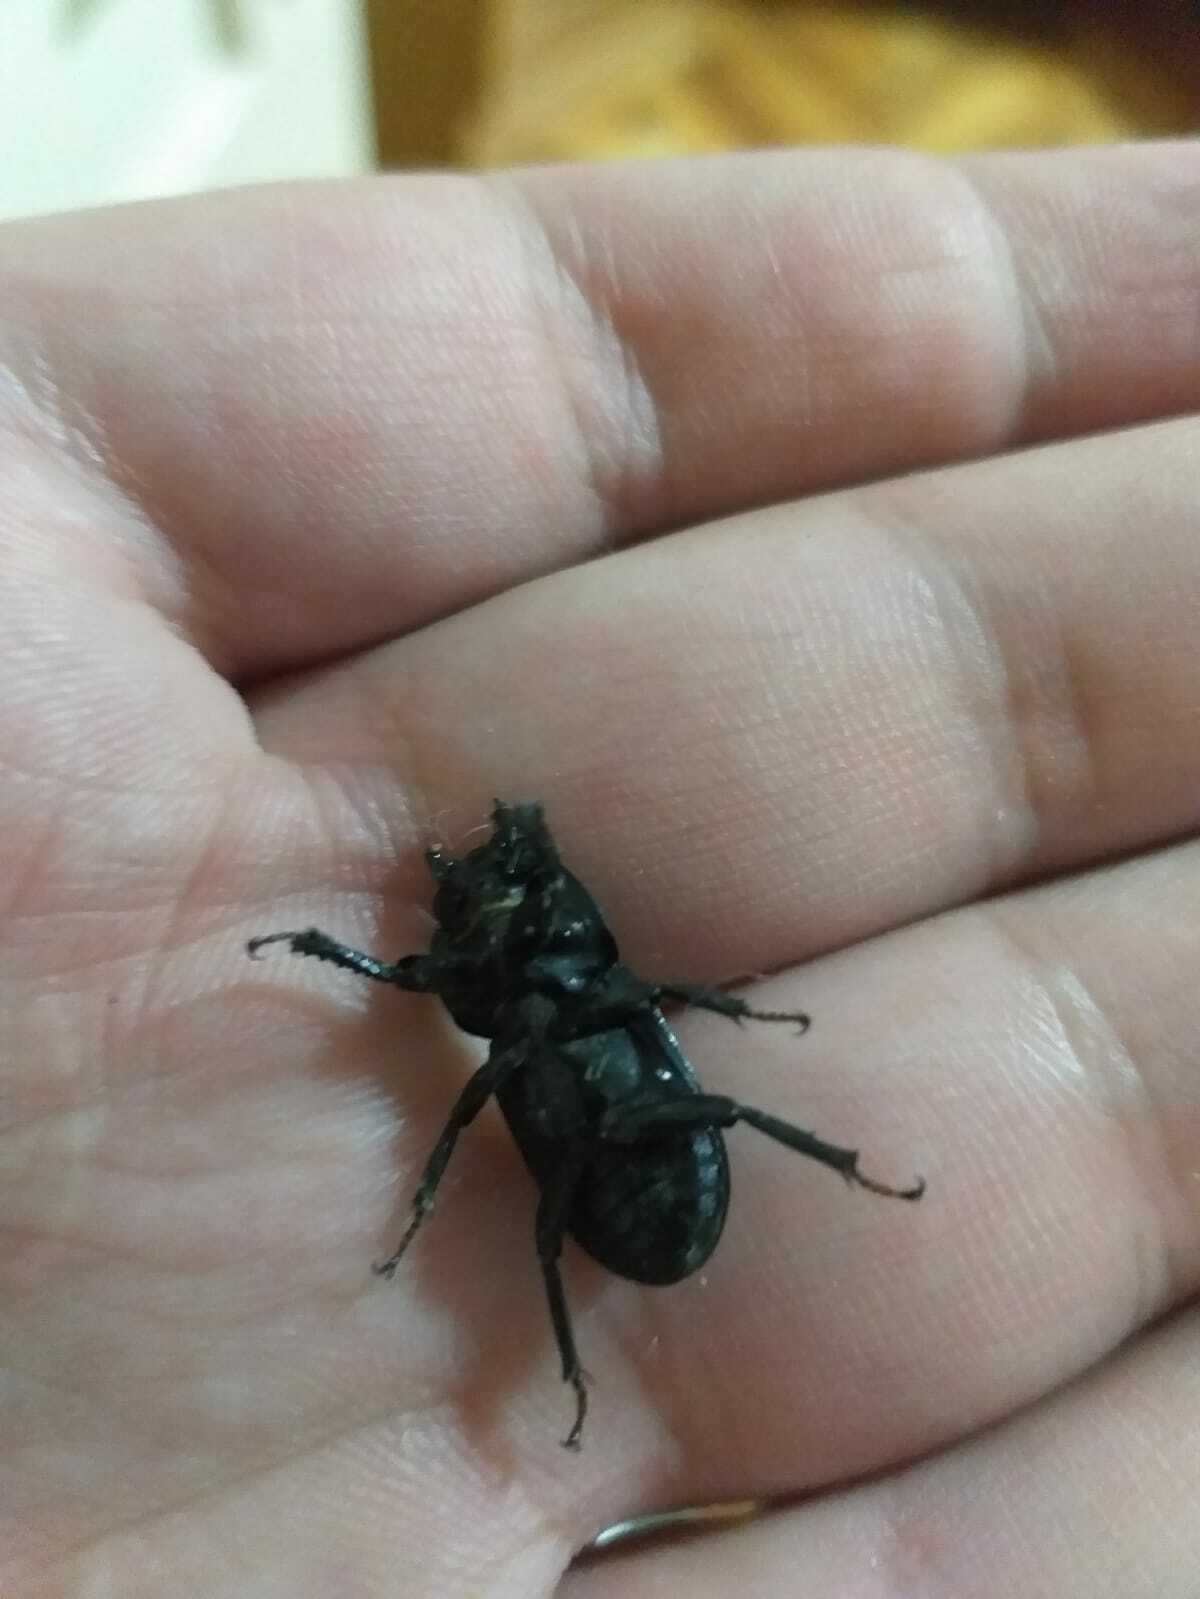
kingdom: Animalia
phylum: Arthropoda
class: Insecta
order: Coleoptera
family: Lucanidae
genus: Dorcus
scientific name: Dorcus parallelipipedus
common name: Lesser stag beetle
